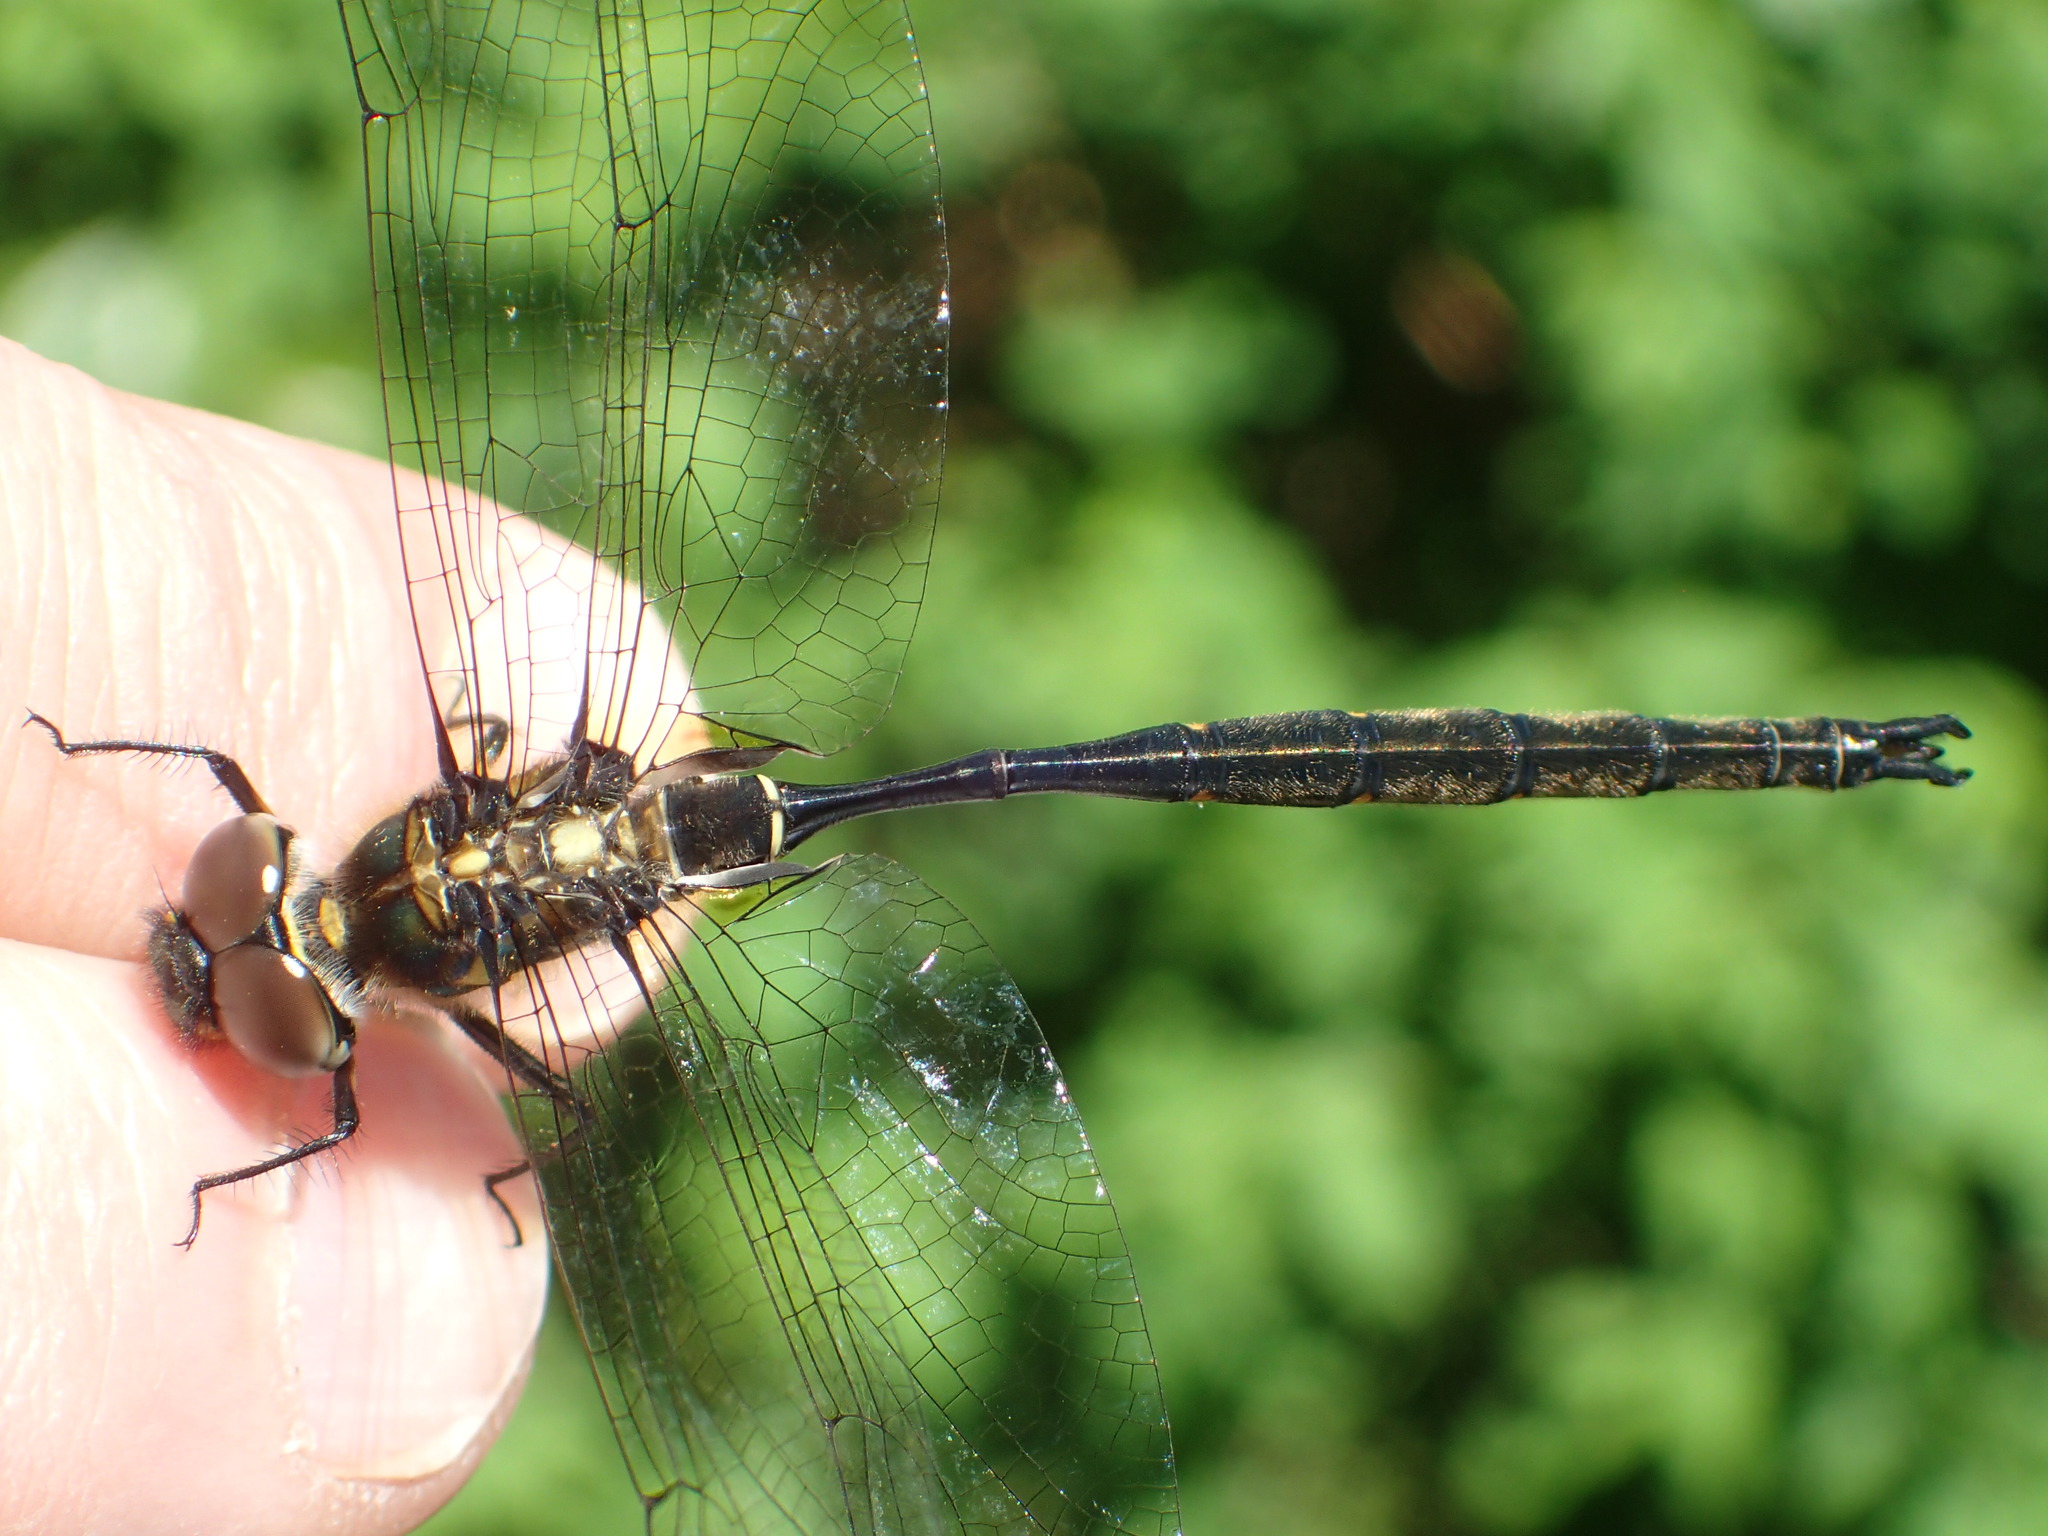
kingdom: Animalia
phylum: Arthropoda
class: Insecta
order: Odonata
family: Corduliidae
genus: Somatochlora
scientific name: Somatochlora forcipata
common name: Forcipate emerald
